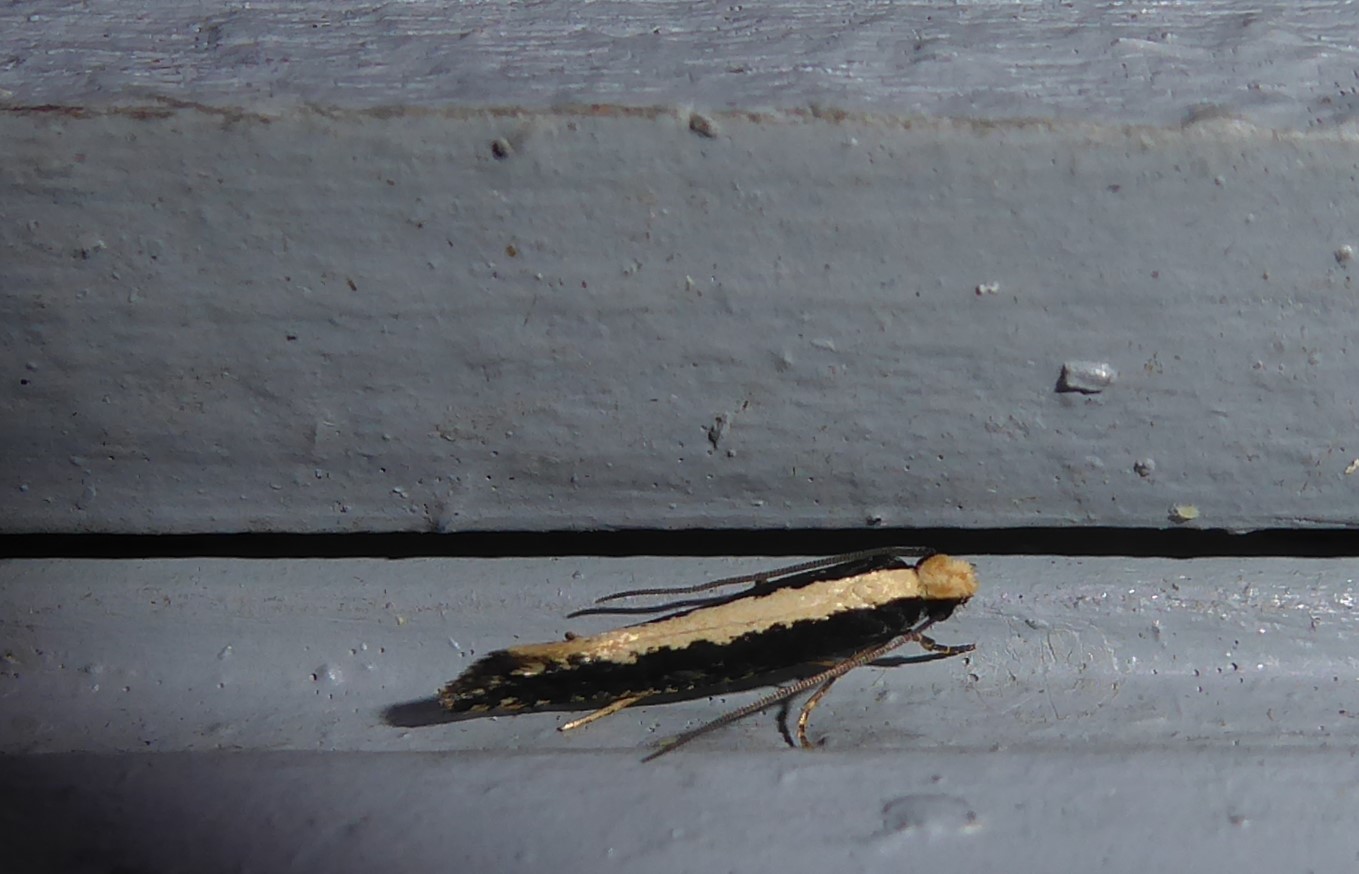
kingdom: Animalia
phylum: Arthropoda
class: Insecta
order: Lepidoptera
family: Tineidae
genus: Monopis
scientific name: Monopis ethelella
